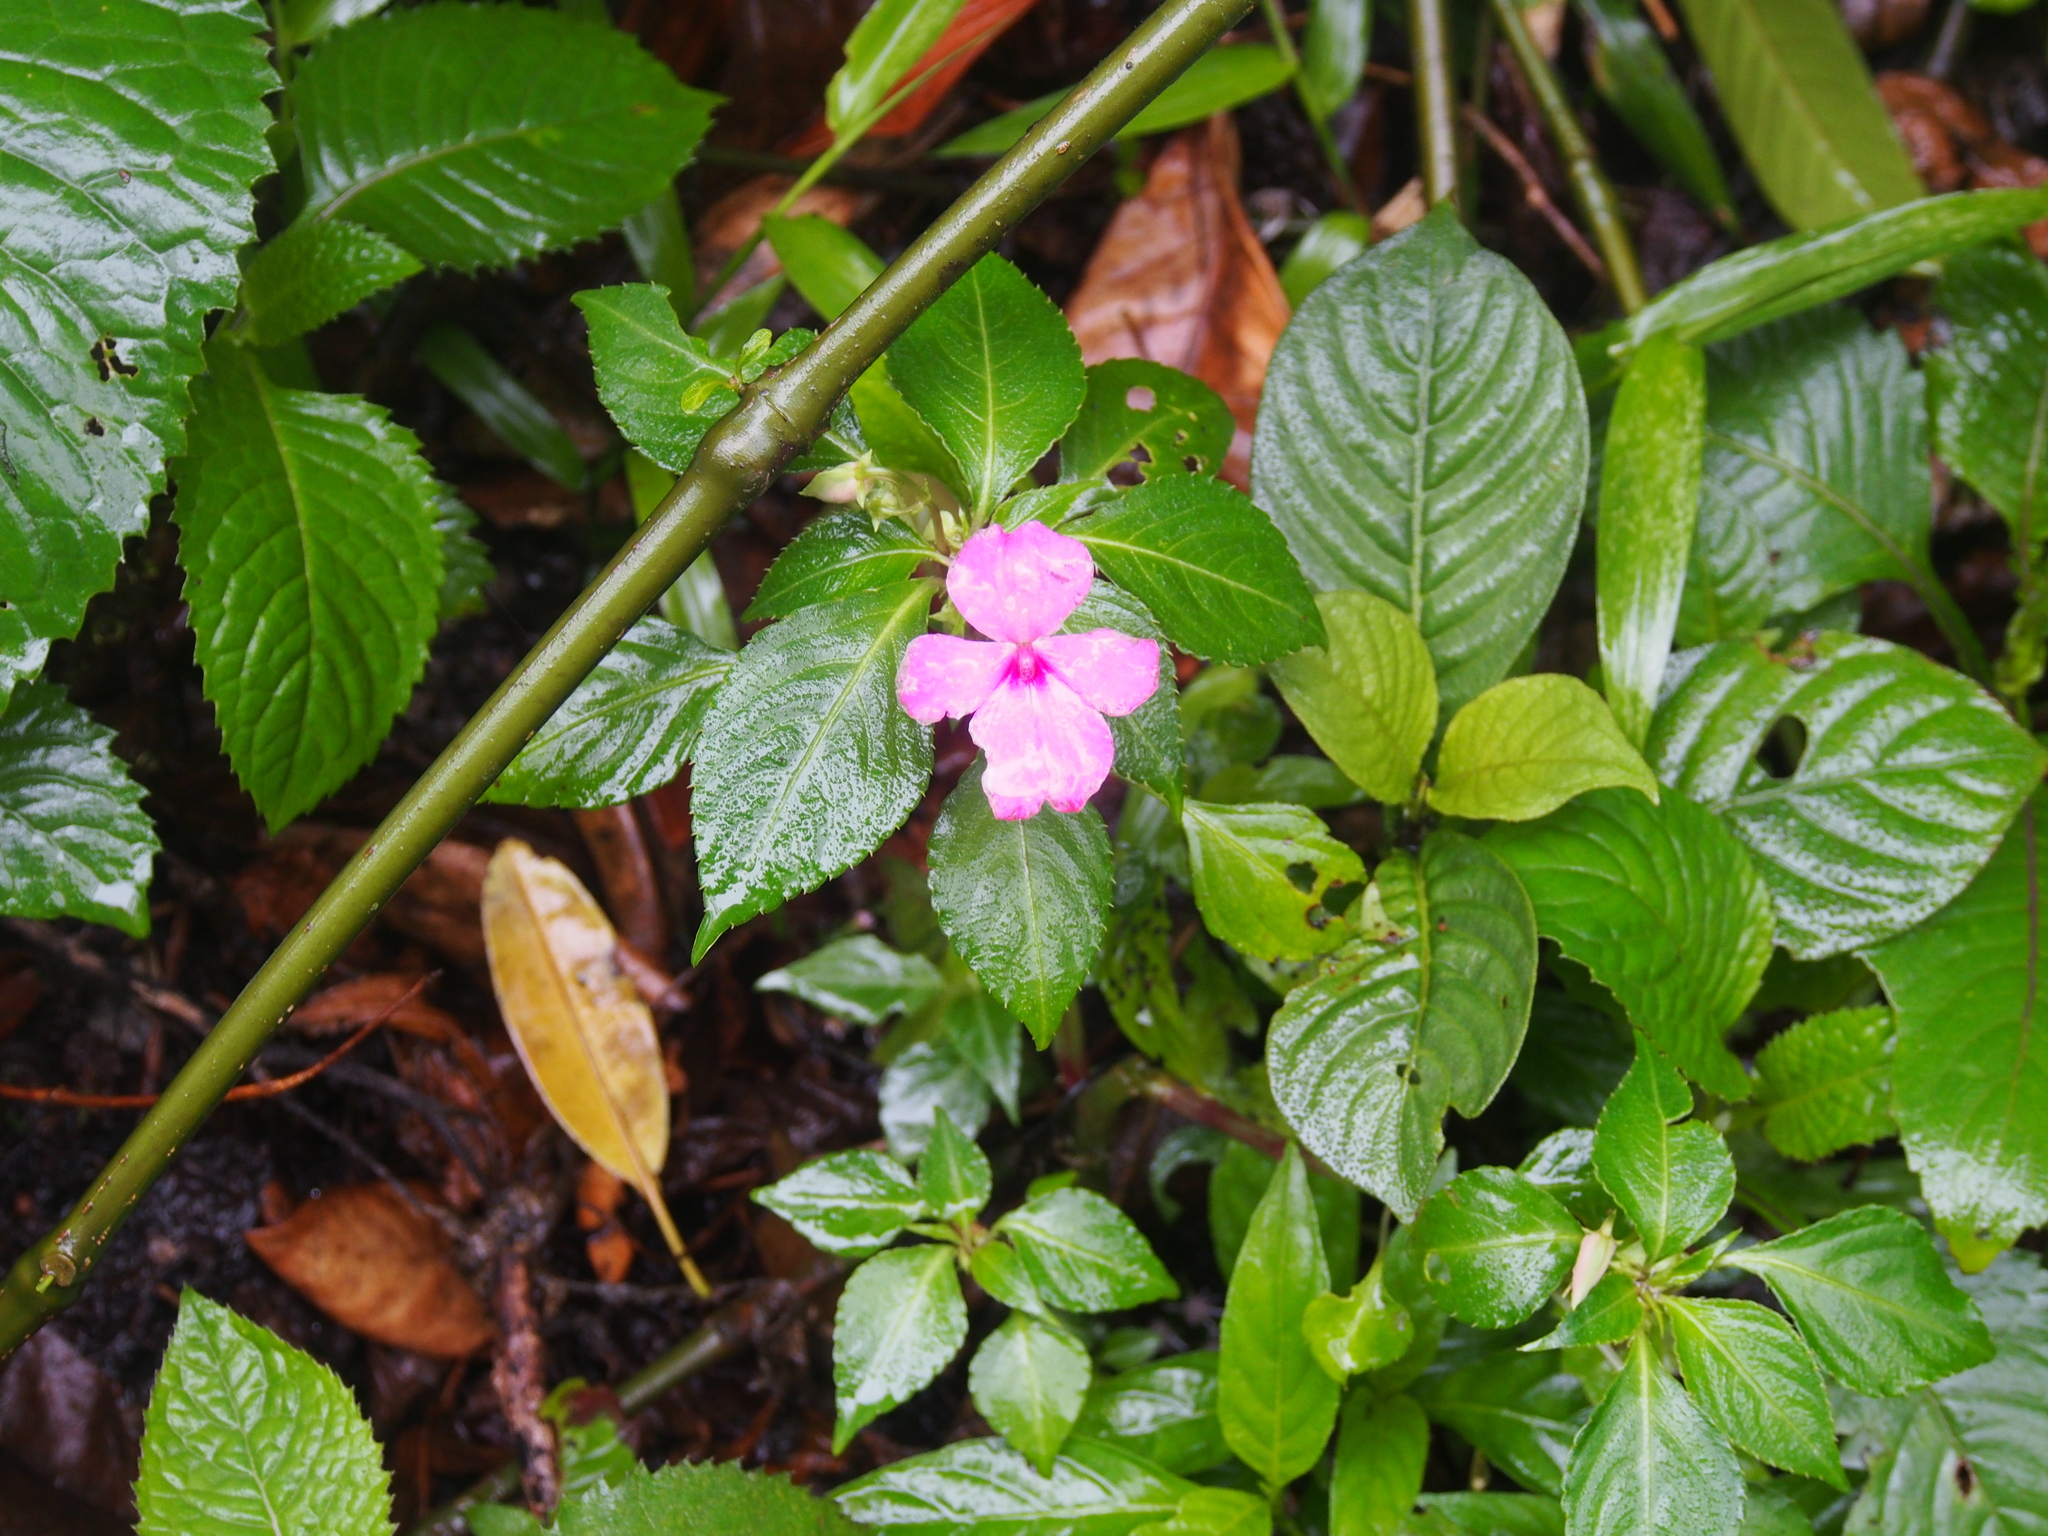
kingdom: Plantae
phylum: Tracheophyta
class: Magnoliopsida
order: Ericales
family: Balsaminaceae
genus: Impatiens
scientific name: Impatiens walleriana
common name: Buzzy lizzy
